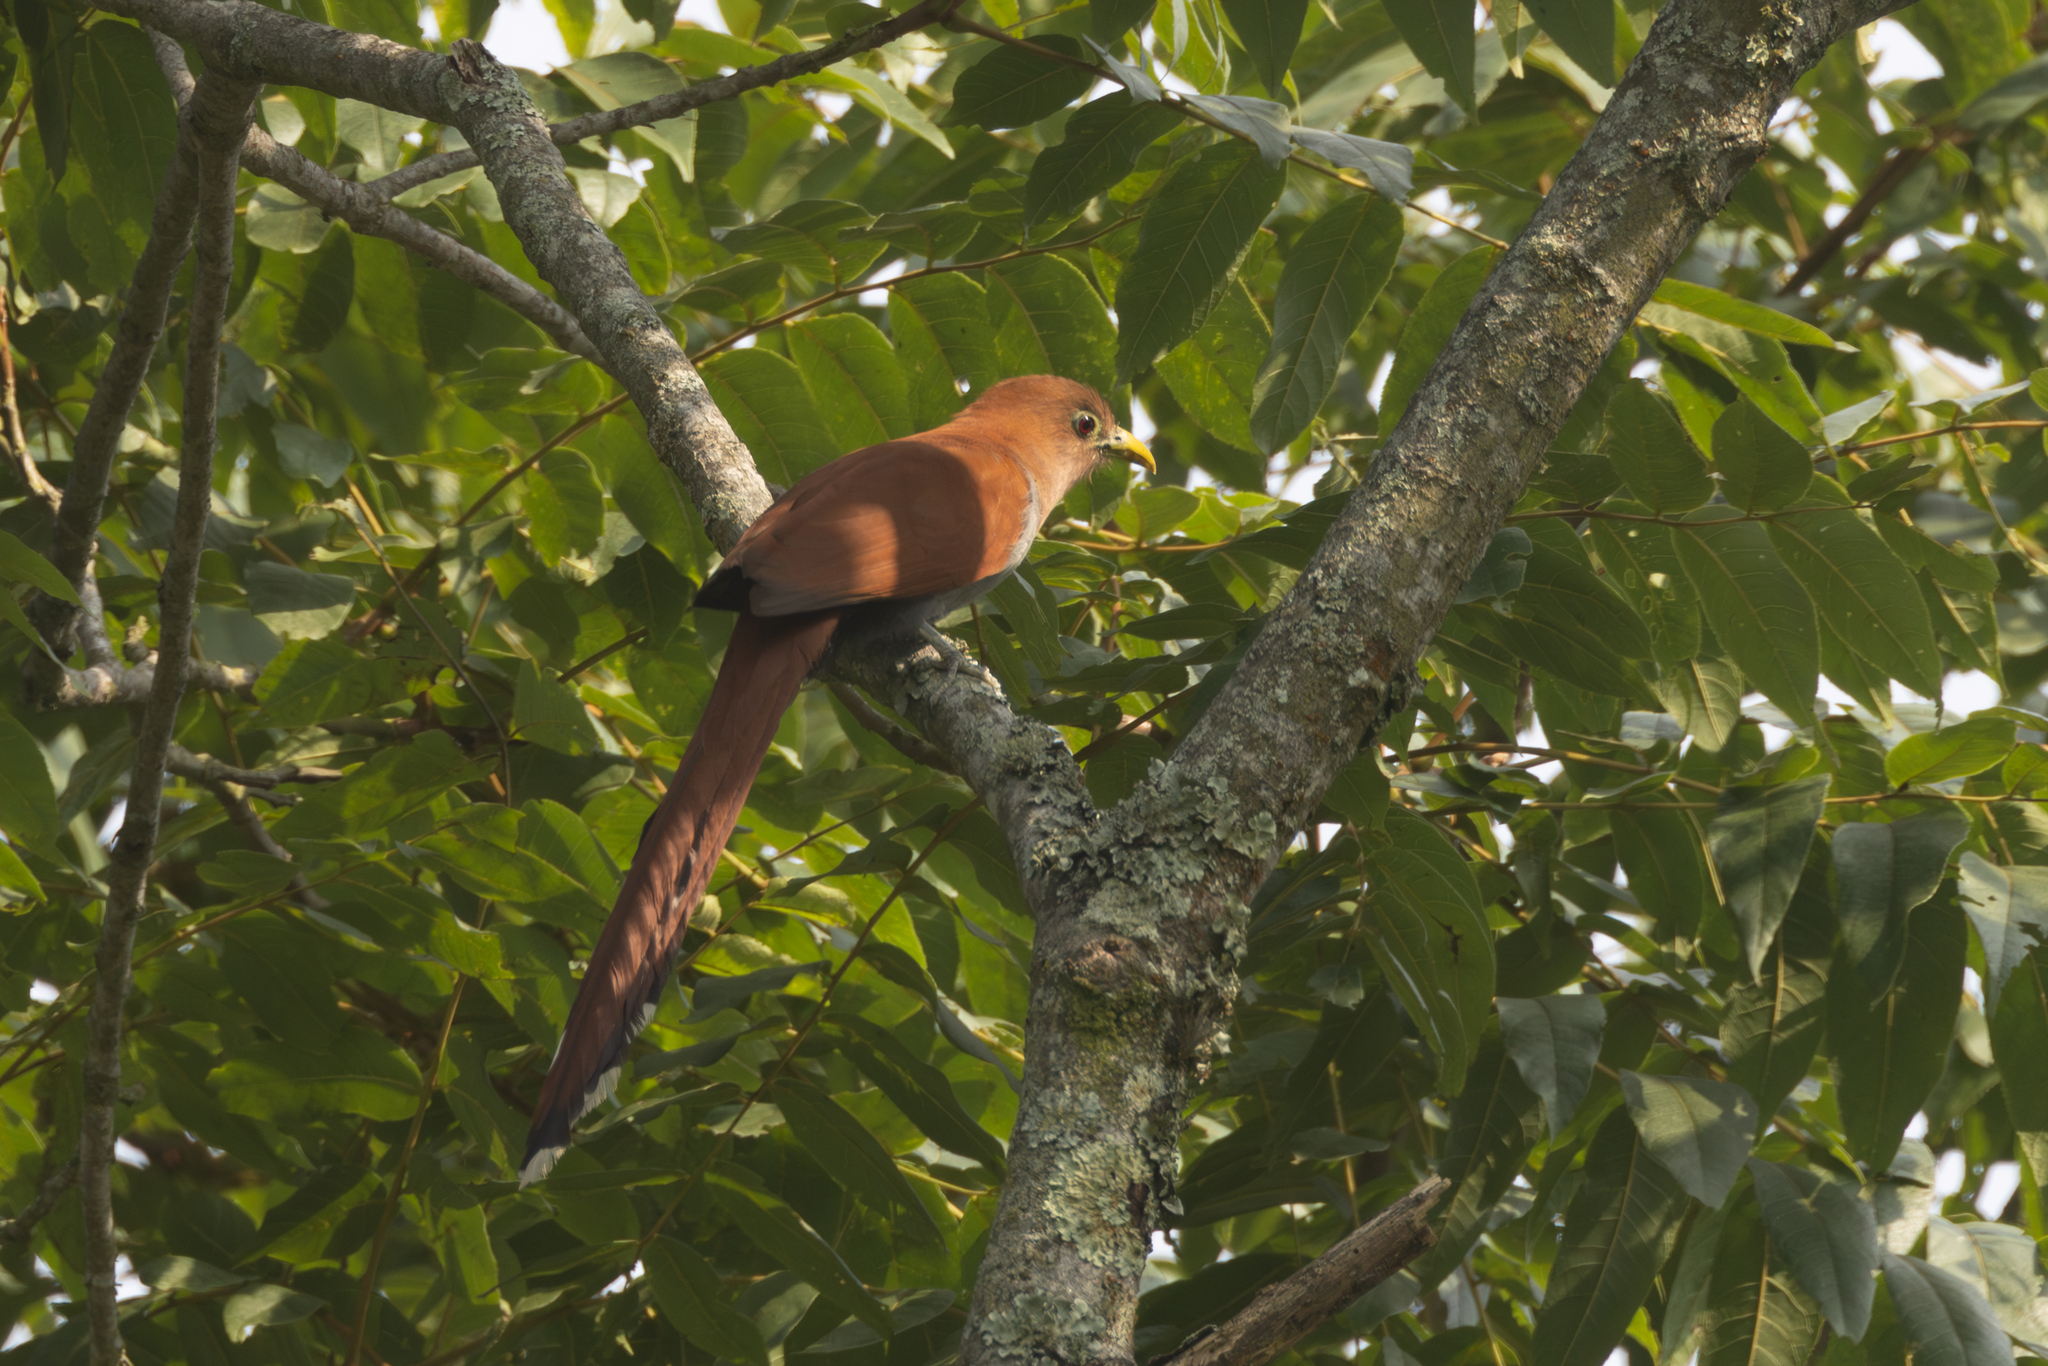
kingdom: Animalia
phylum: Chordata
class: Aves
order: Cuculiformes
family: Cuculidae
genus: Piaya
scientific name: Piaya cayana
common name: Squirrel cuckoo
